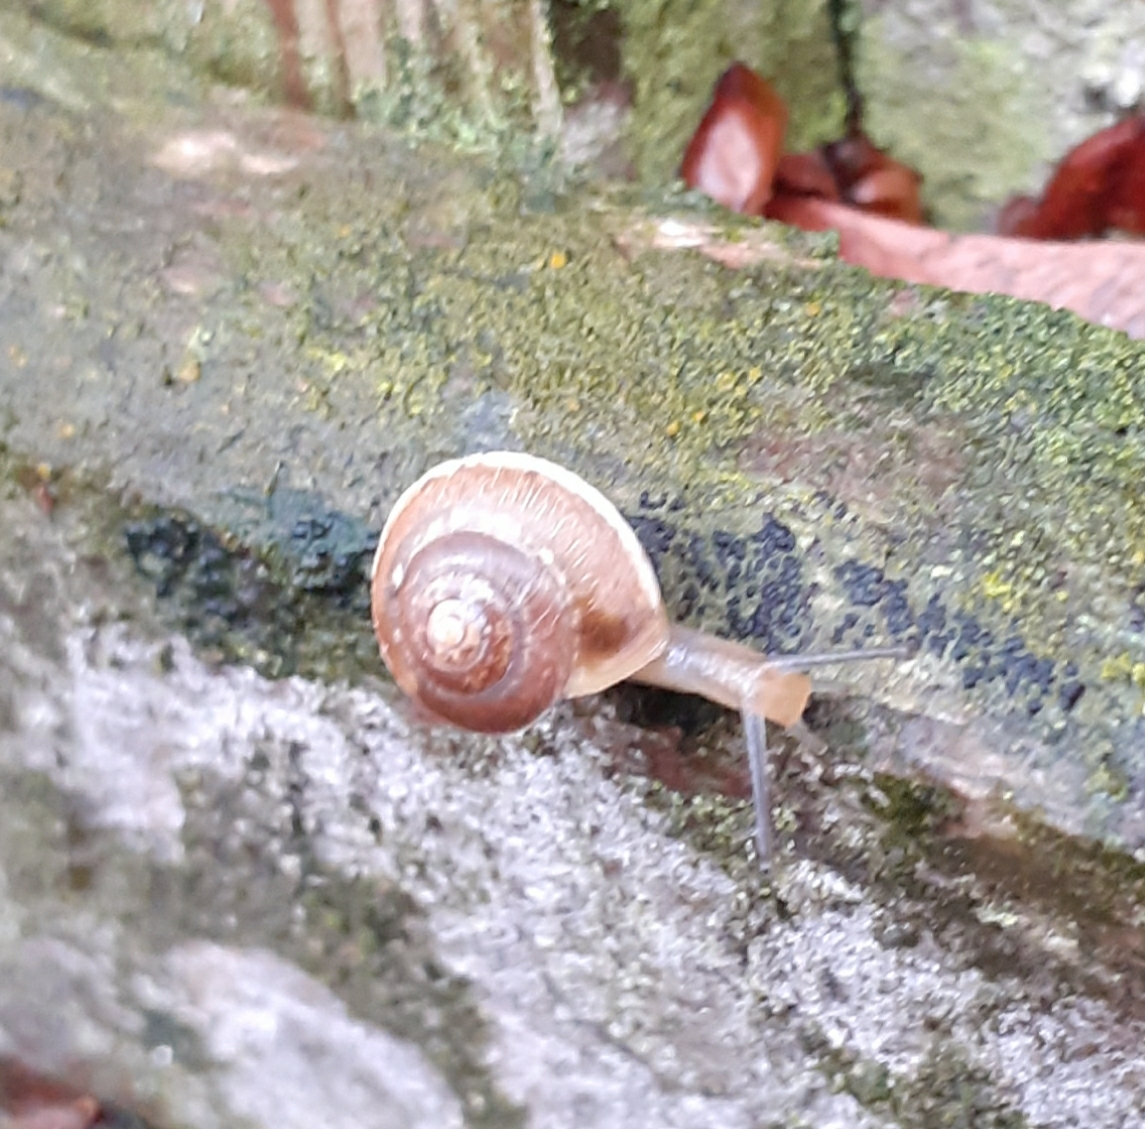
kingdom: Animalia
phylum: Mollusca
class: Gastropoda
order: Stylommatophora
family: Hygromiidae
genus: Hygromia
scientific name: Hygromia cinctella
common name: Girdled snail
